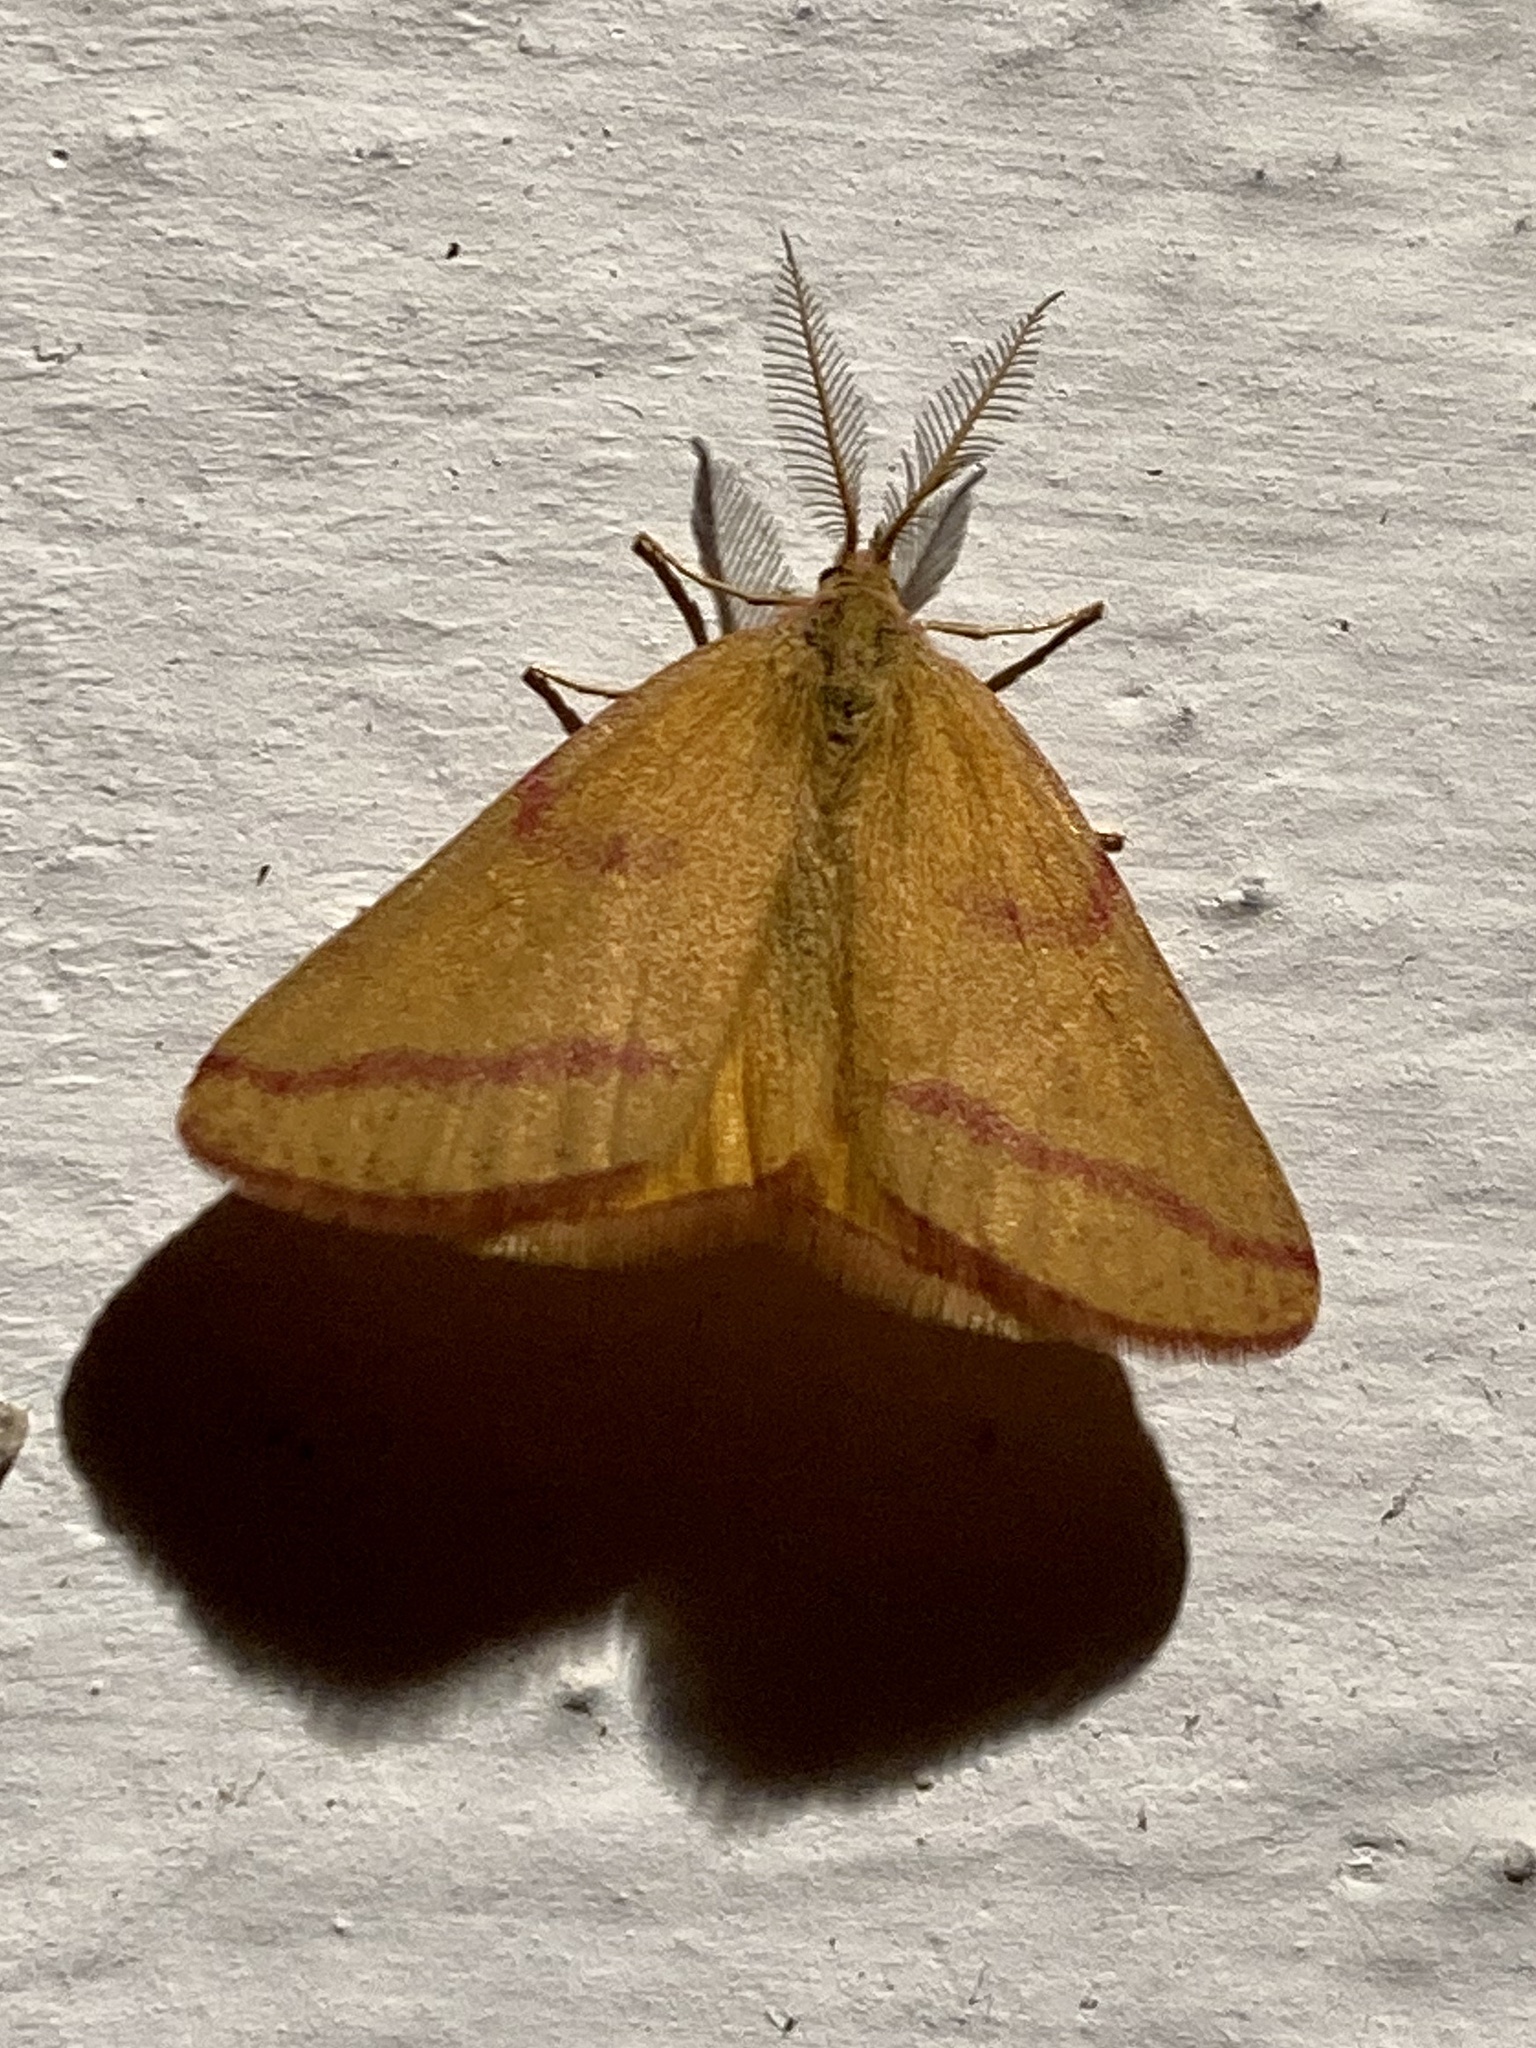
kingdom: Animalia
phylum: Arthropoda
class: Insecta
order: Lepidoptera
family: Geometridae
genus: Lythria
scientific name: Lythria purpuraria
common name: Purple-barred yellow
